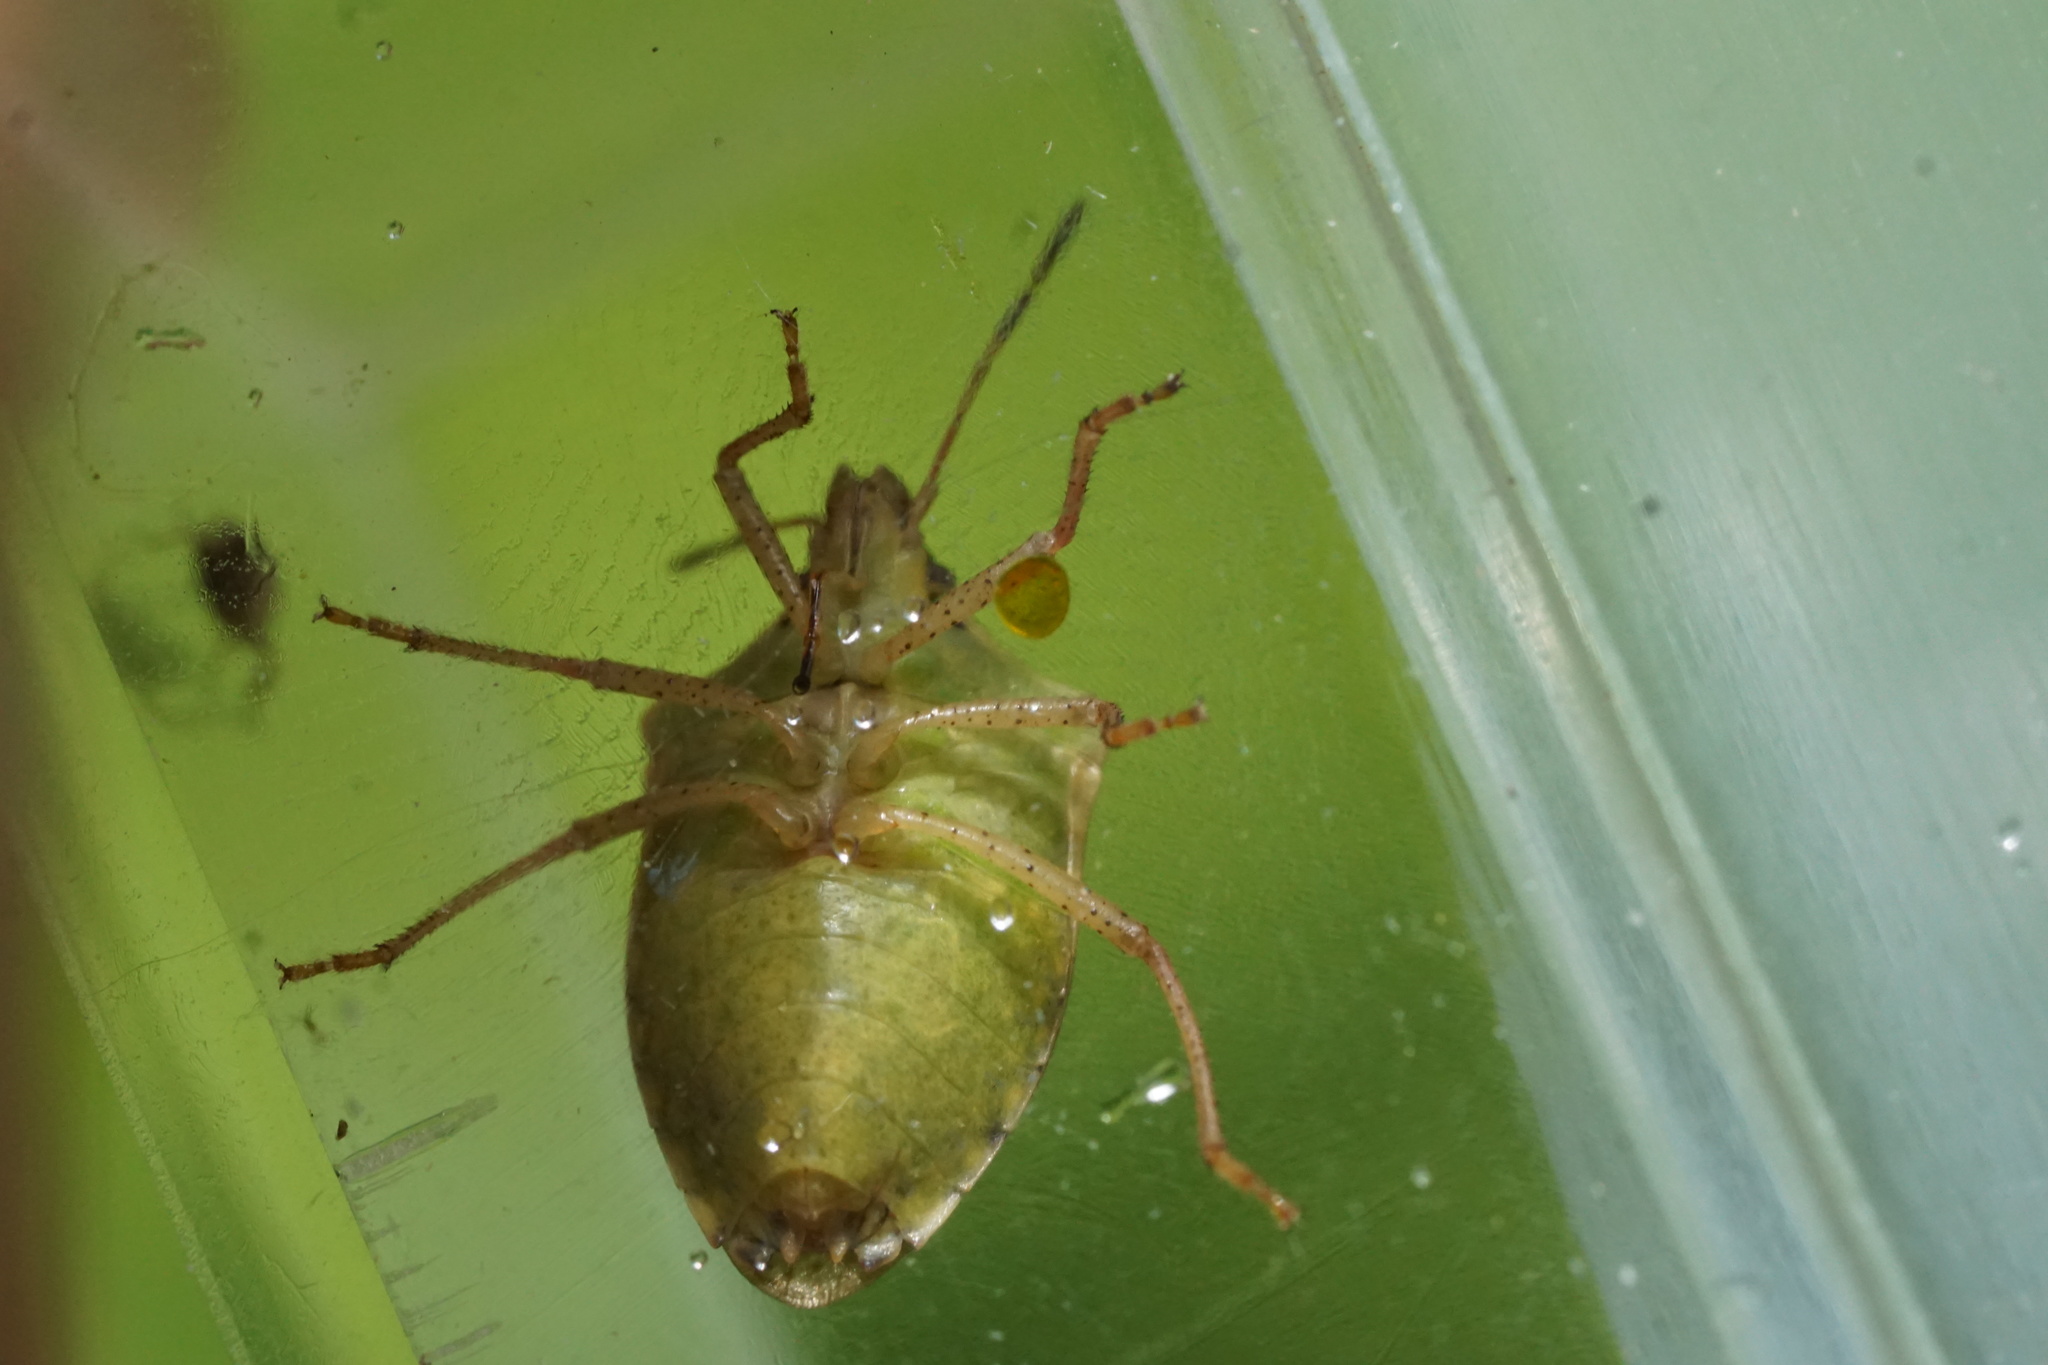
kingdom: Animalia
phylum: Arthropoda
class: Insecta
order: Hemiptera
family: Pentatomidae
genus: Euschistus
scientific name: Euschistus servus
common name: Brown stink bug
